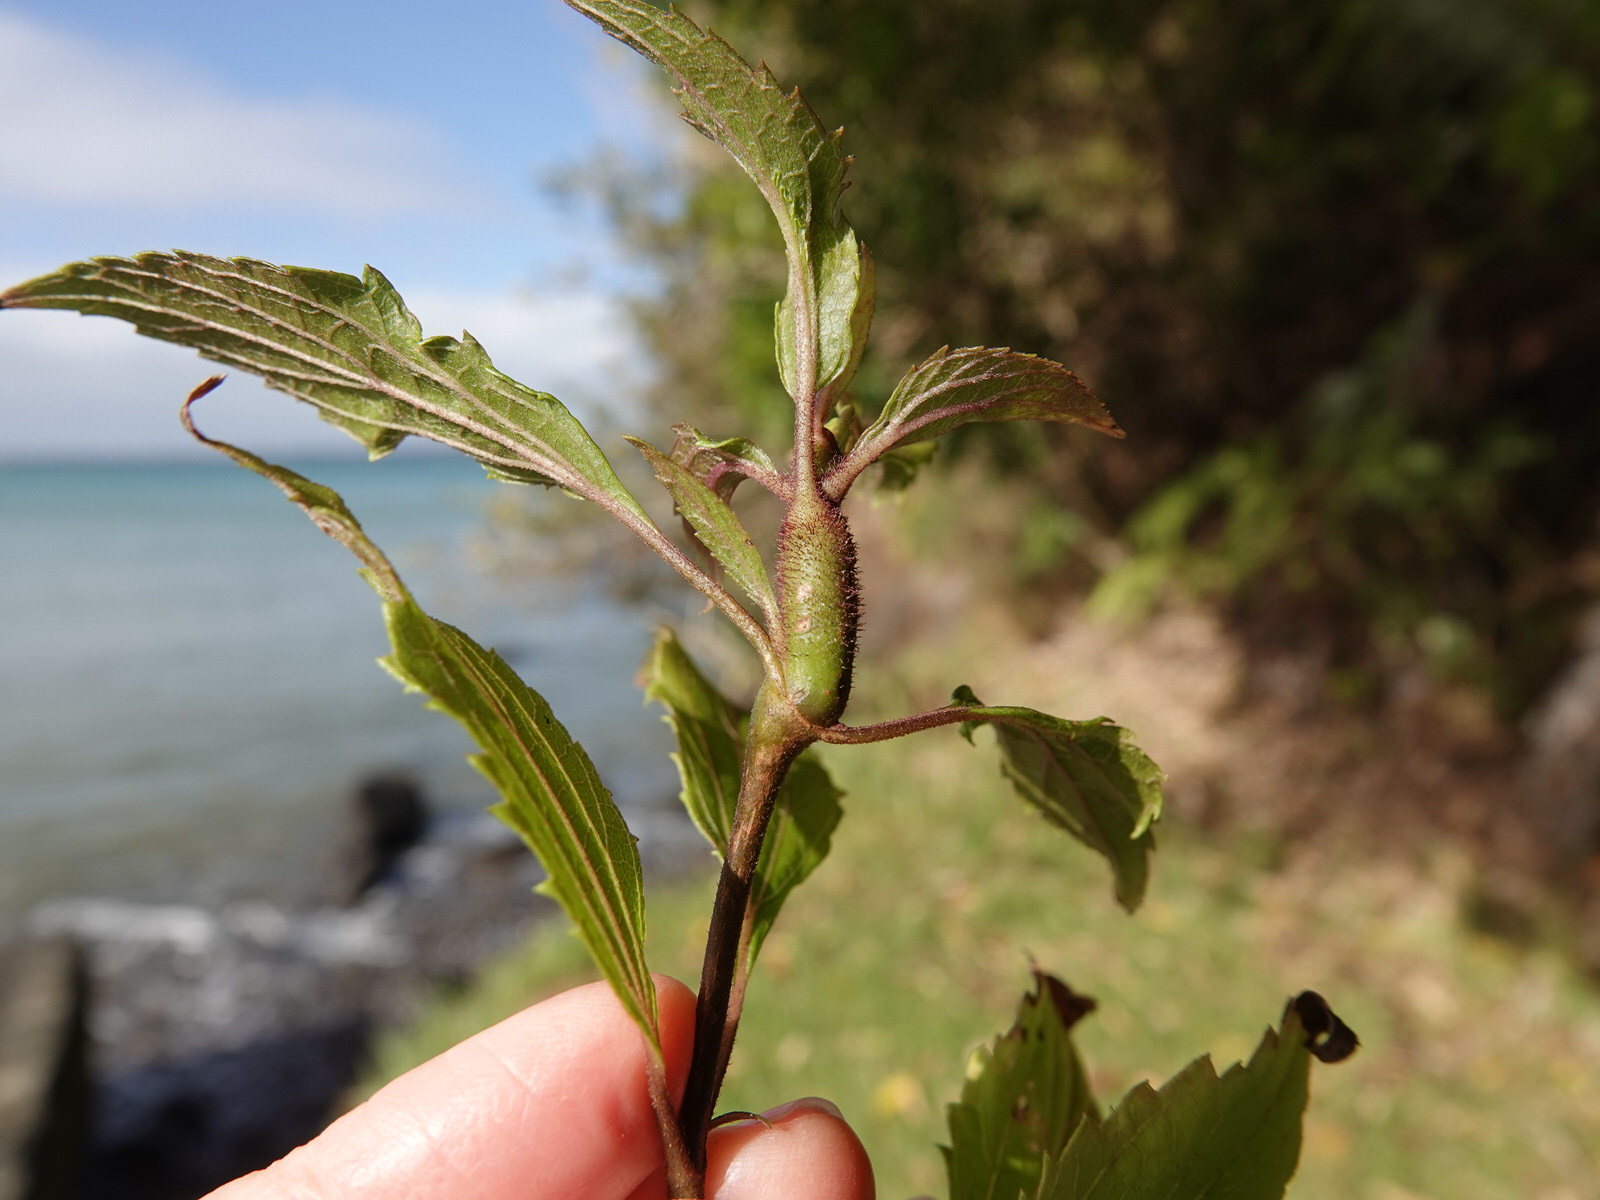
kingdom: Plantae
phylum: Tracheophyta
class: Magnoliopsida
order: Asterales
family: Asteraceae
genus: Ageratina
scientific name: Ageratina riparia
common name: Creeping croftonweed
